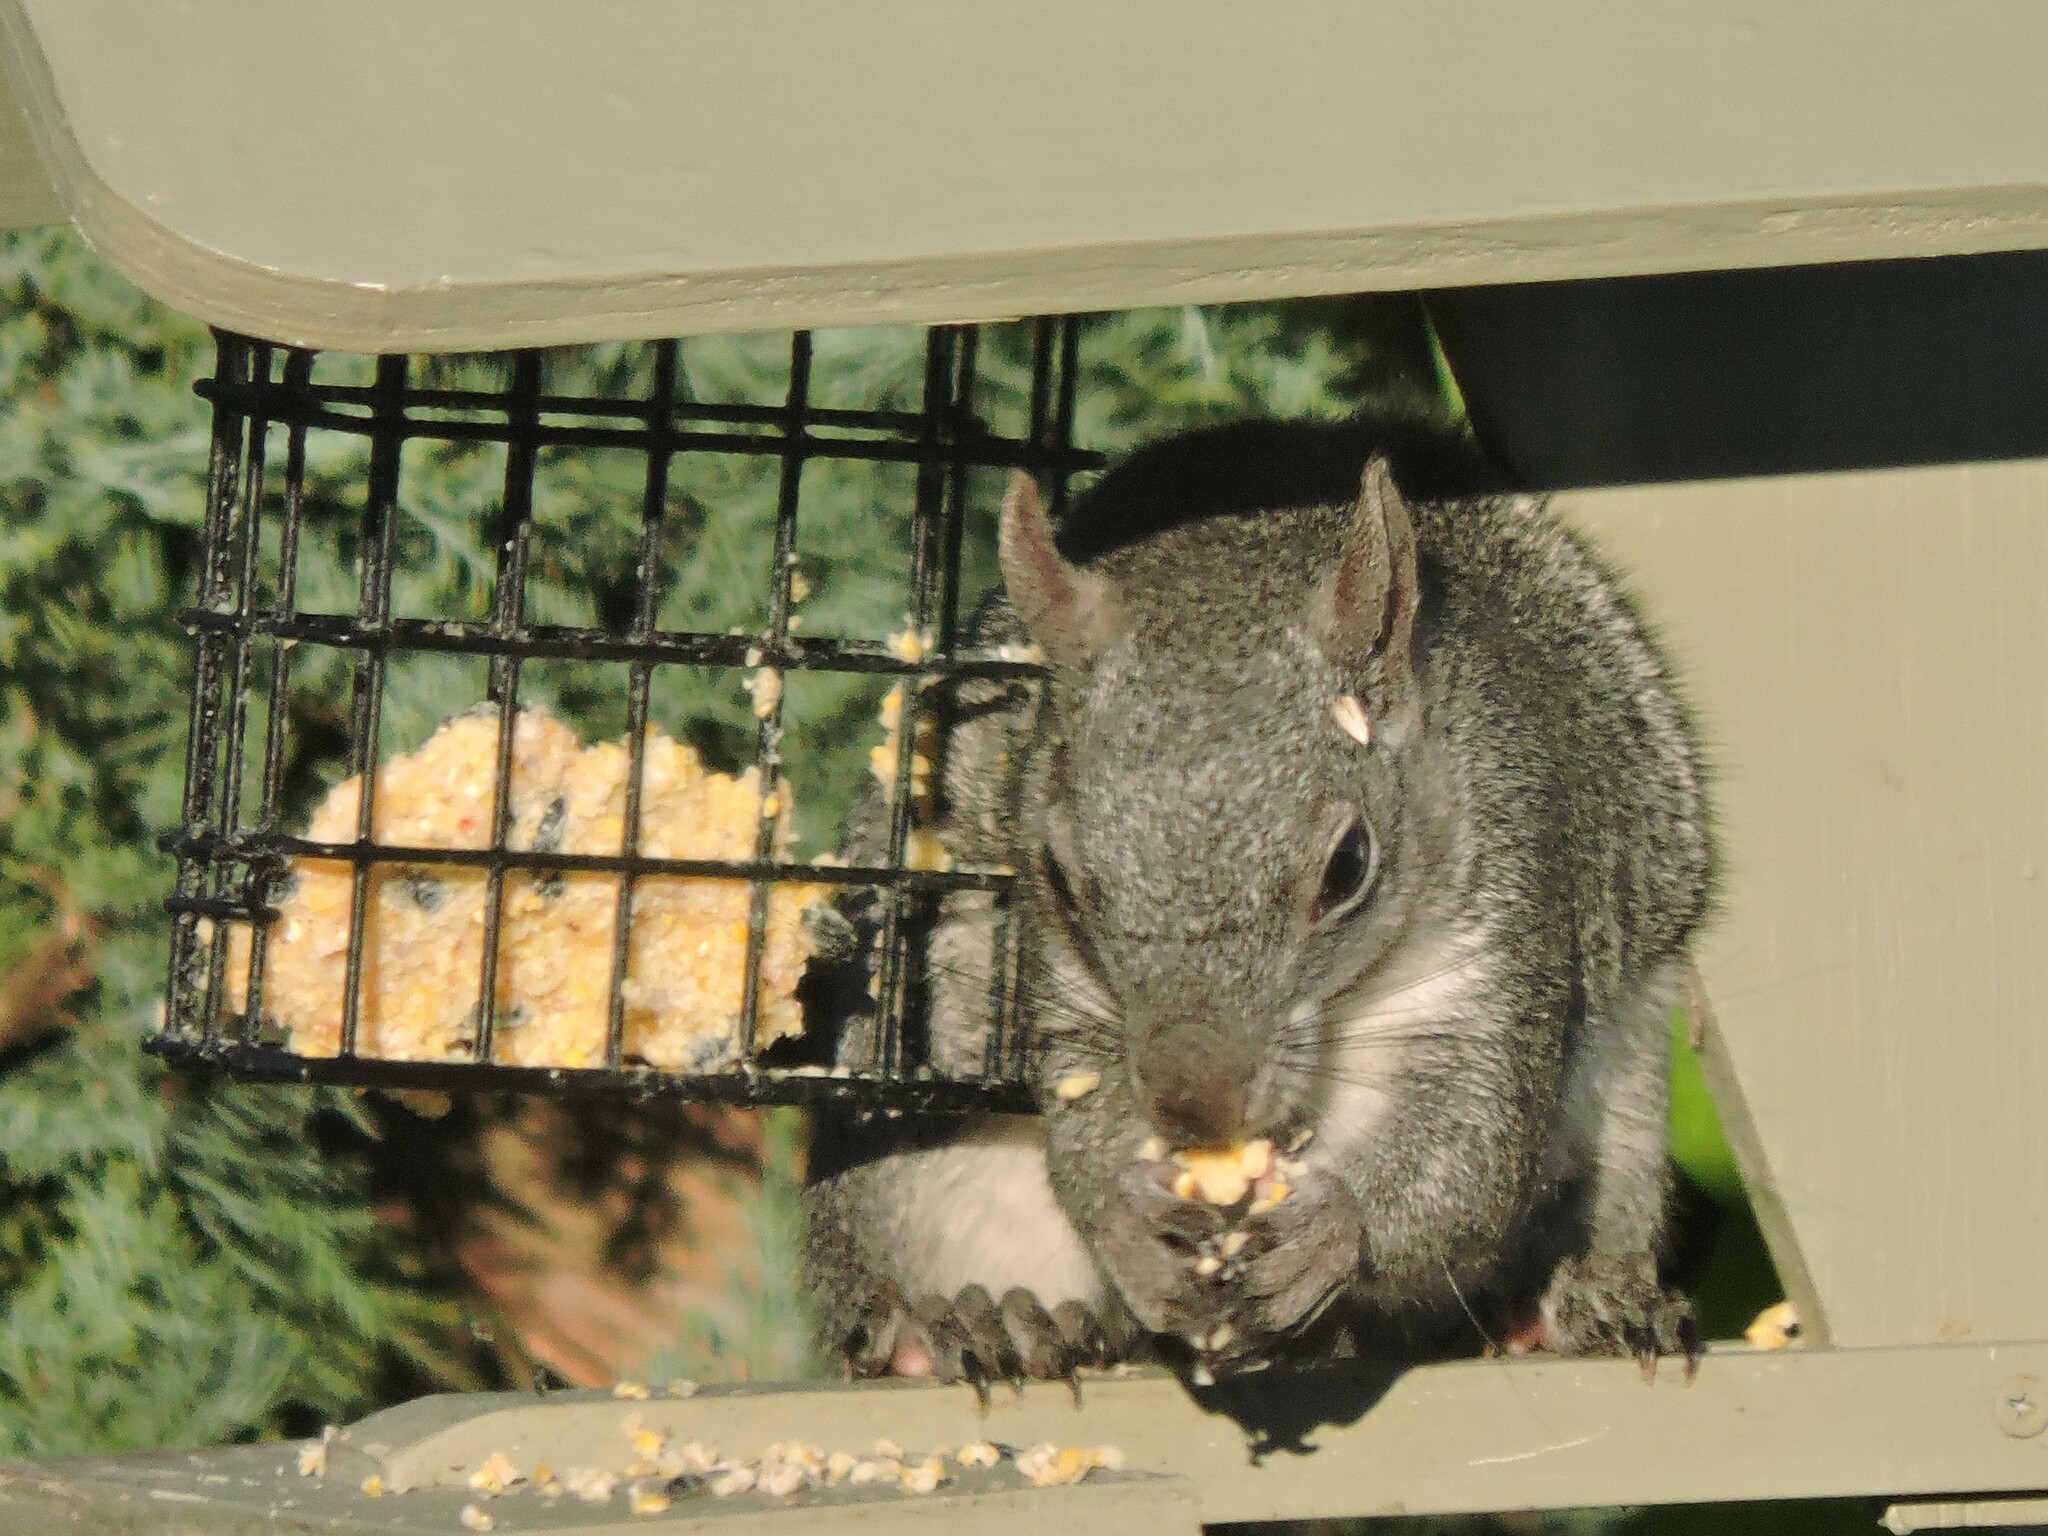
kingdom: Animalia
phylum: Chordata
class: Mammalia
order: Rodentia
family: Sciuridae
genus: Sciurus
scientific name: Sciurus griseus
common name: Western gray squirrel
